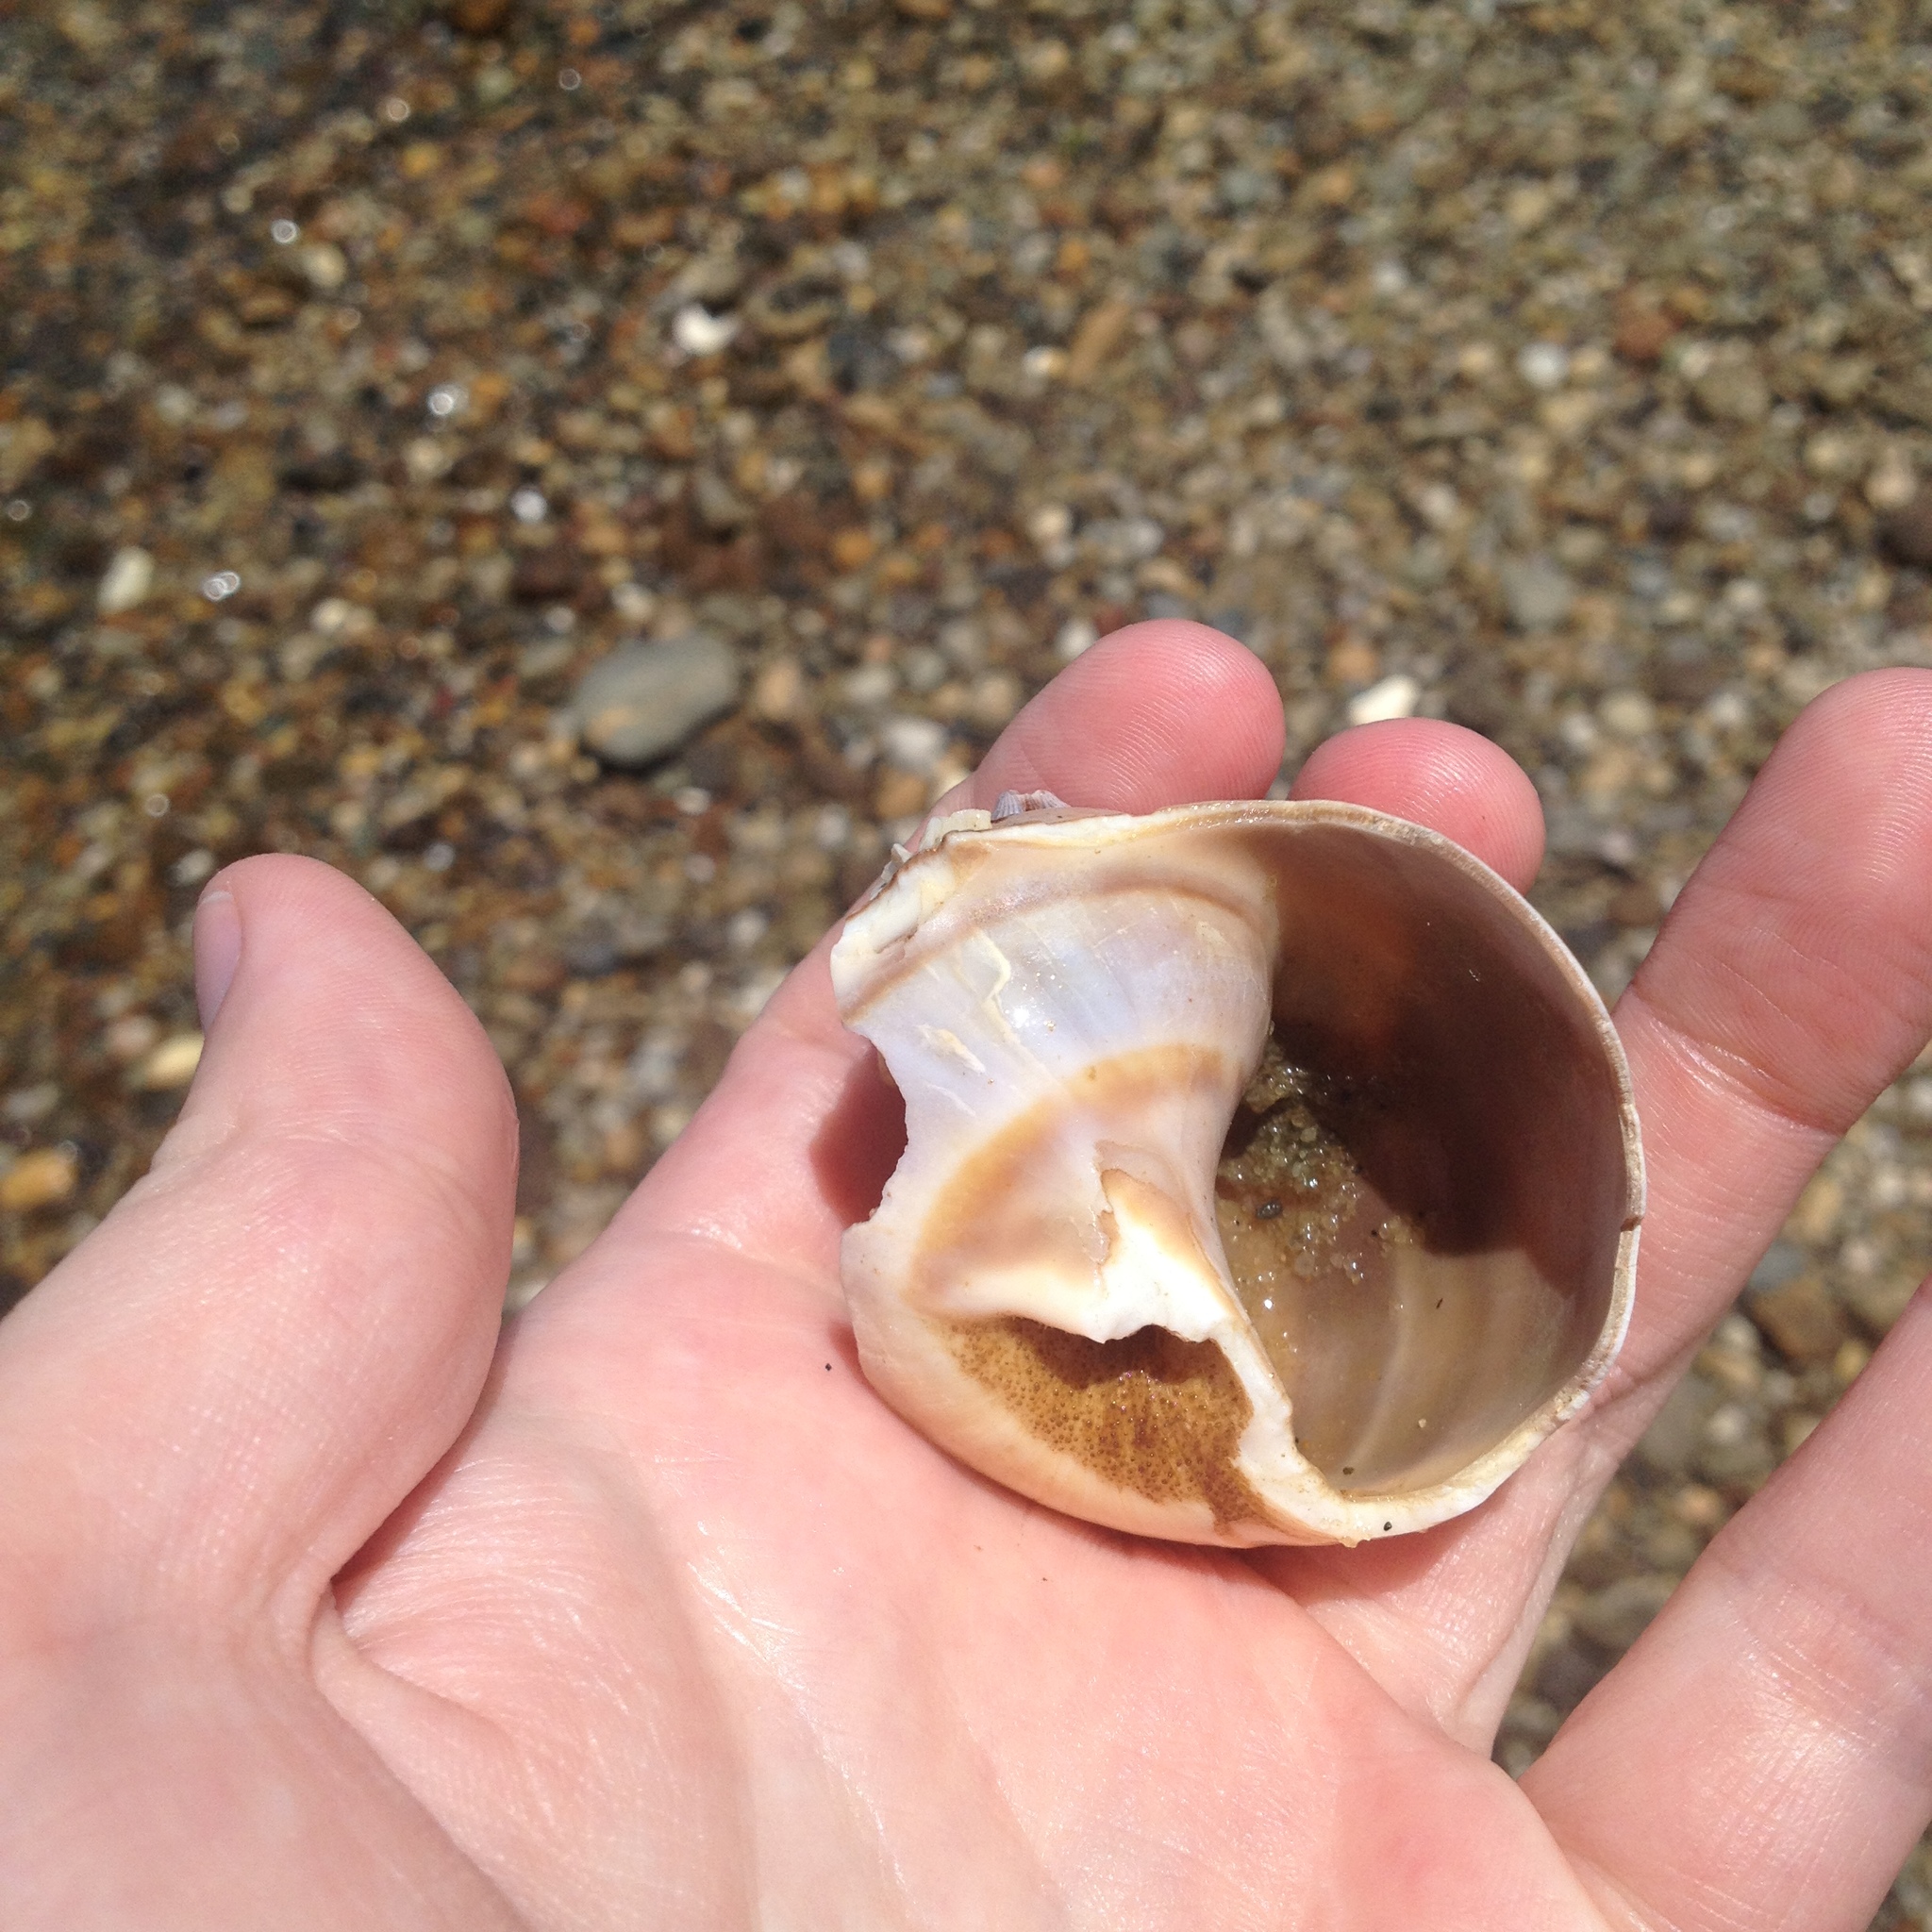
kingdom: Animalia
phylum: Mollusca
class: Gastropoda
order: Littorinimorpha
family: Naticidae
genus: Euspira
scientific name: Euspira heros
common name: Common northern moonsnail
